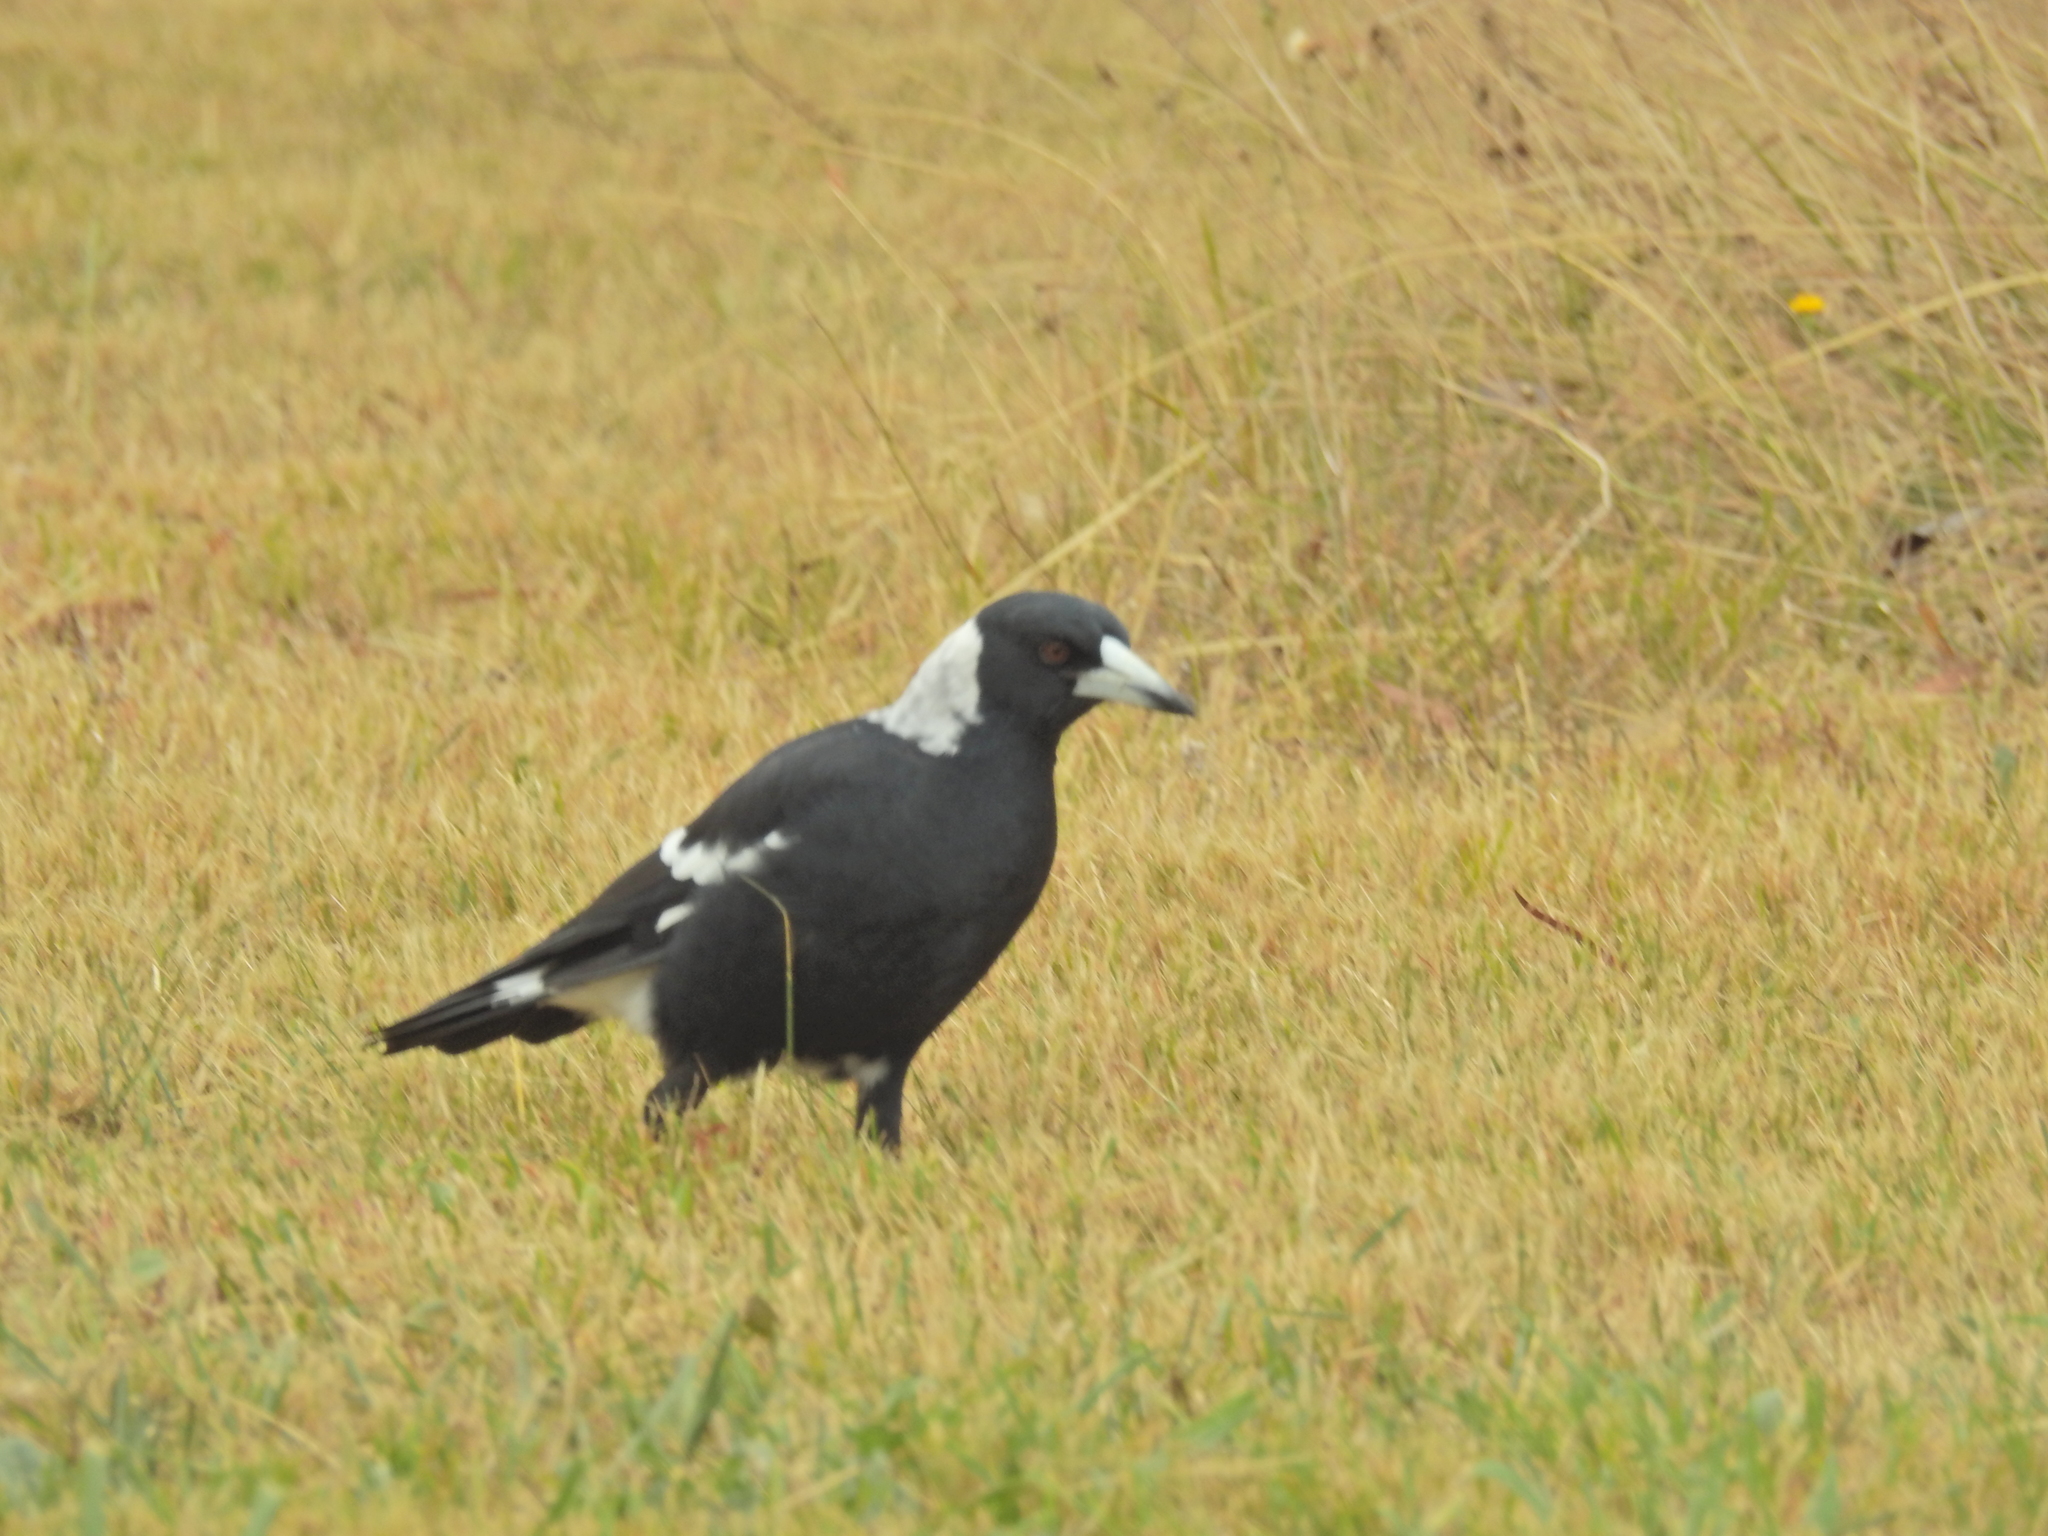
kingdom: Animalia
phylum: Chordata
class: Aves
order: Passeriformes
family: Cracticidae
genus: Gymnorhina
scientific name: Gymnorhina tibicen
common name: Australian magpie
